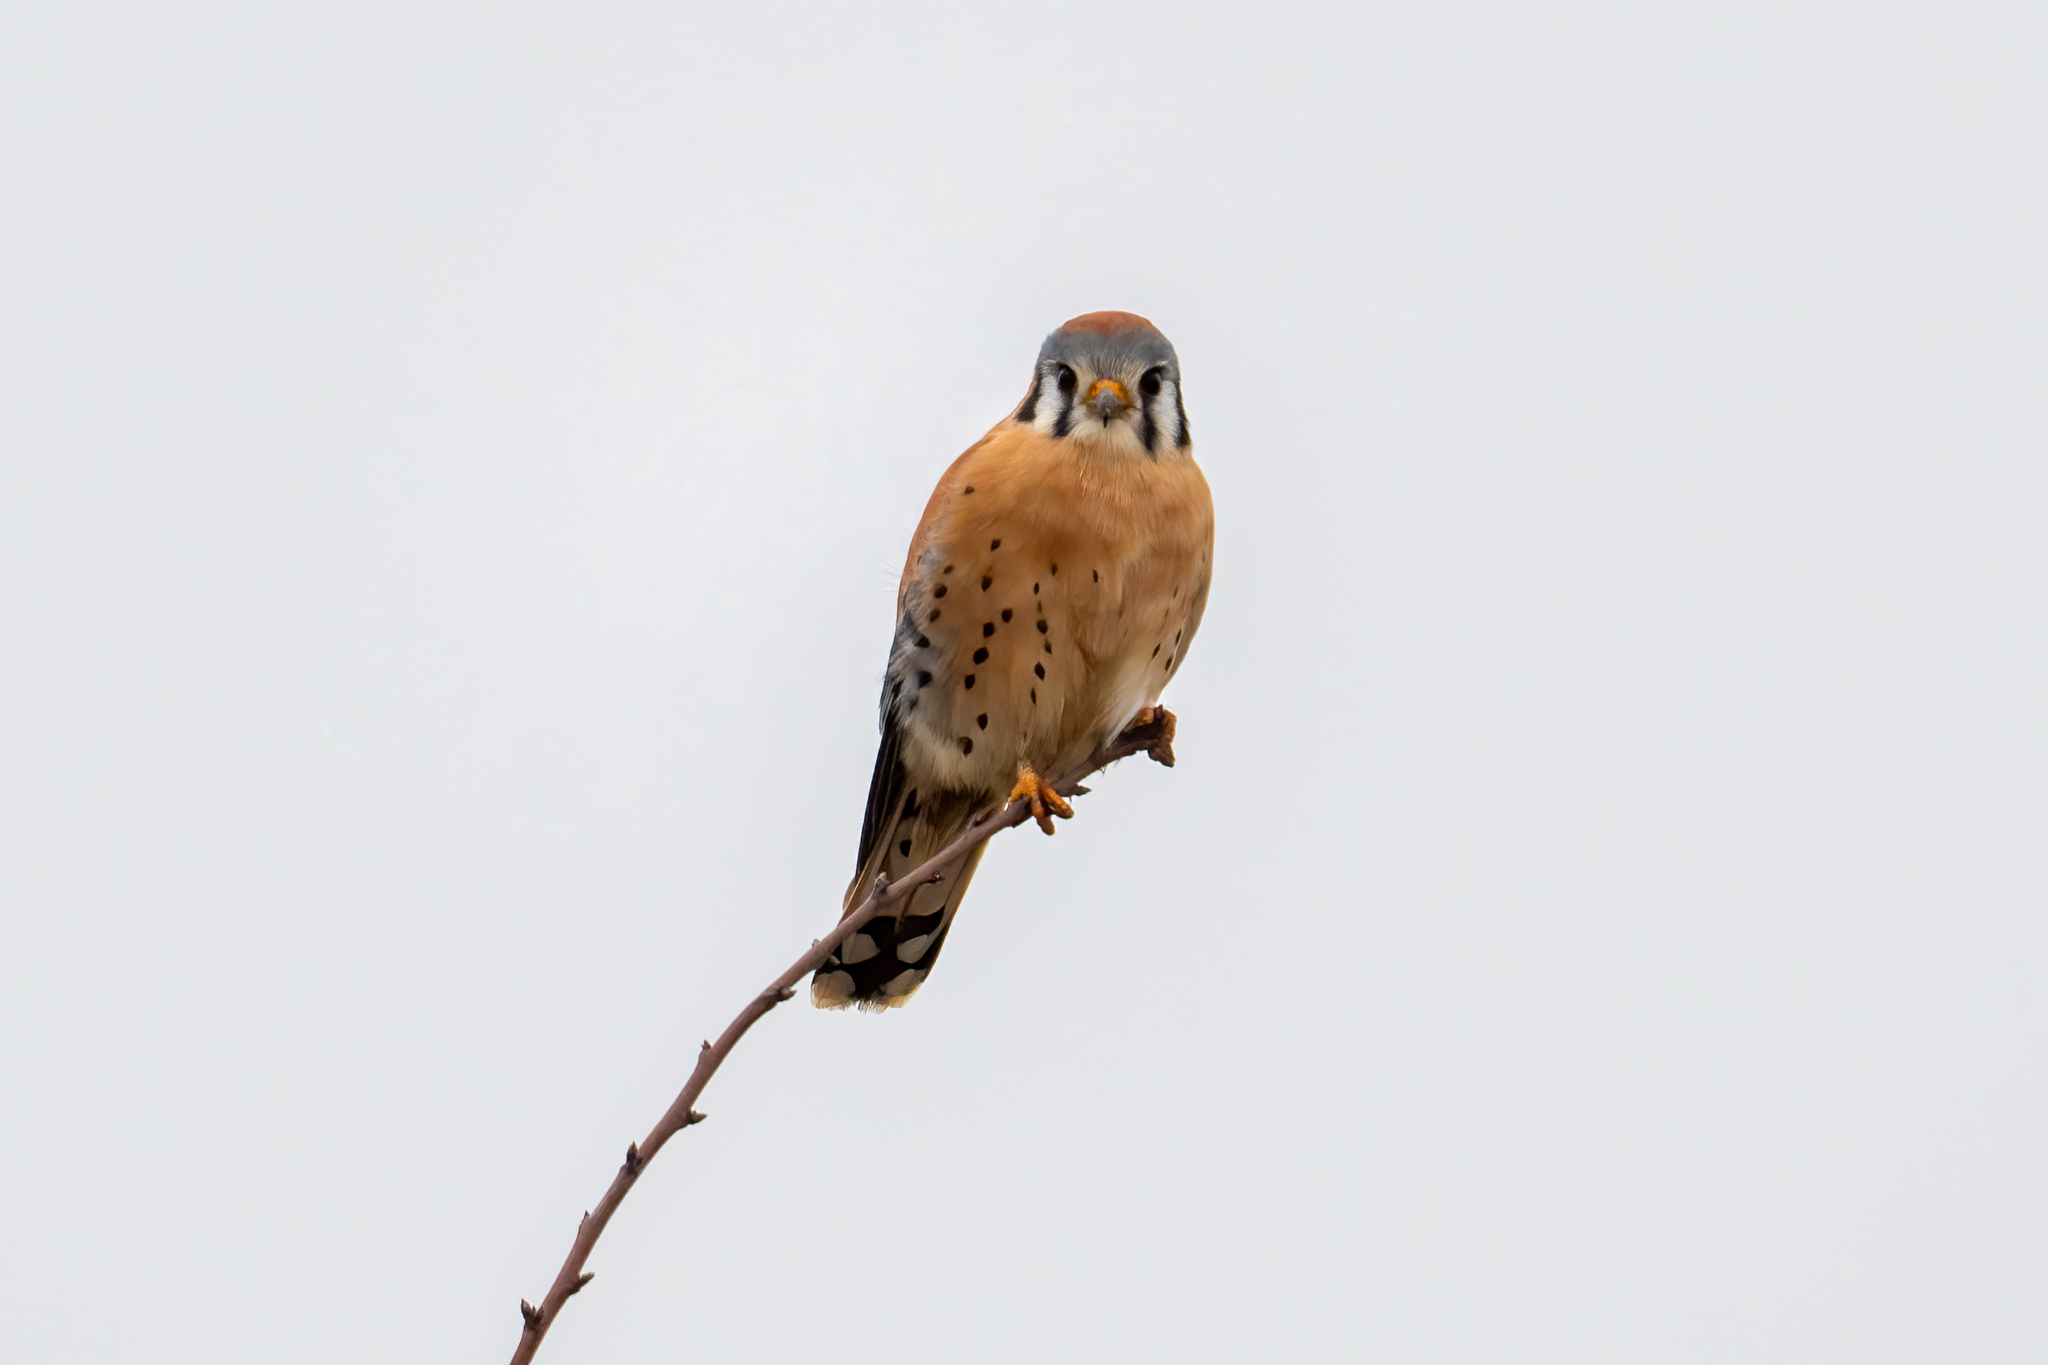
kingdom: Animalia
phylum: Chordata
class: Aves
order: Falconiformes
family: Falconidae
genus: Falco
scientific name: Falco sparverius
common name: American kestrel
